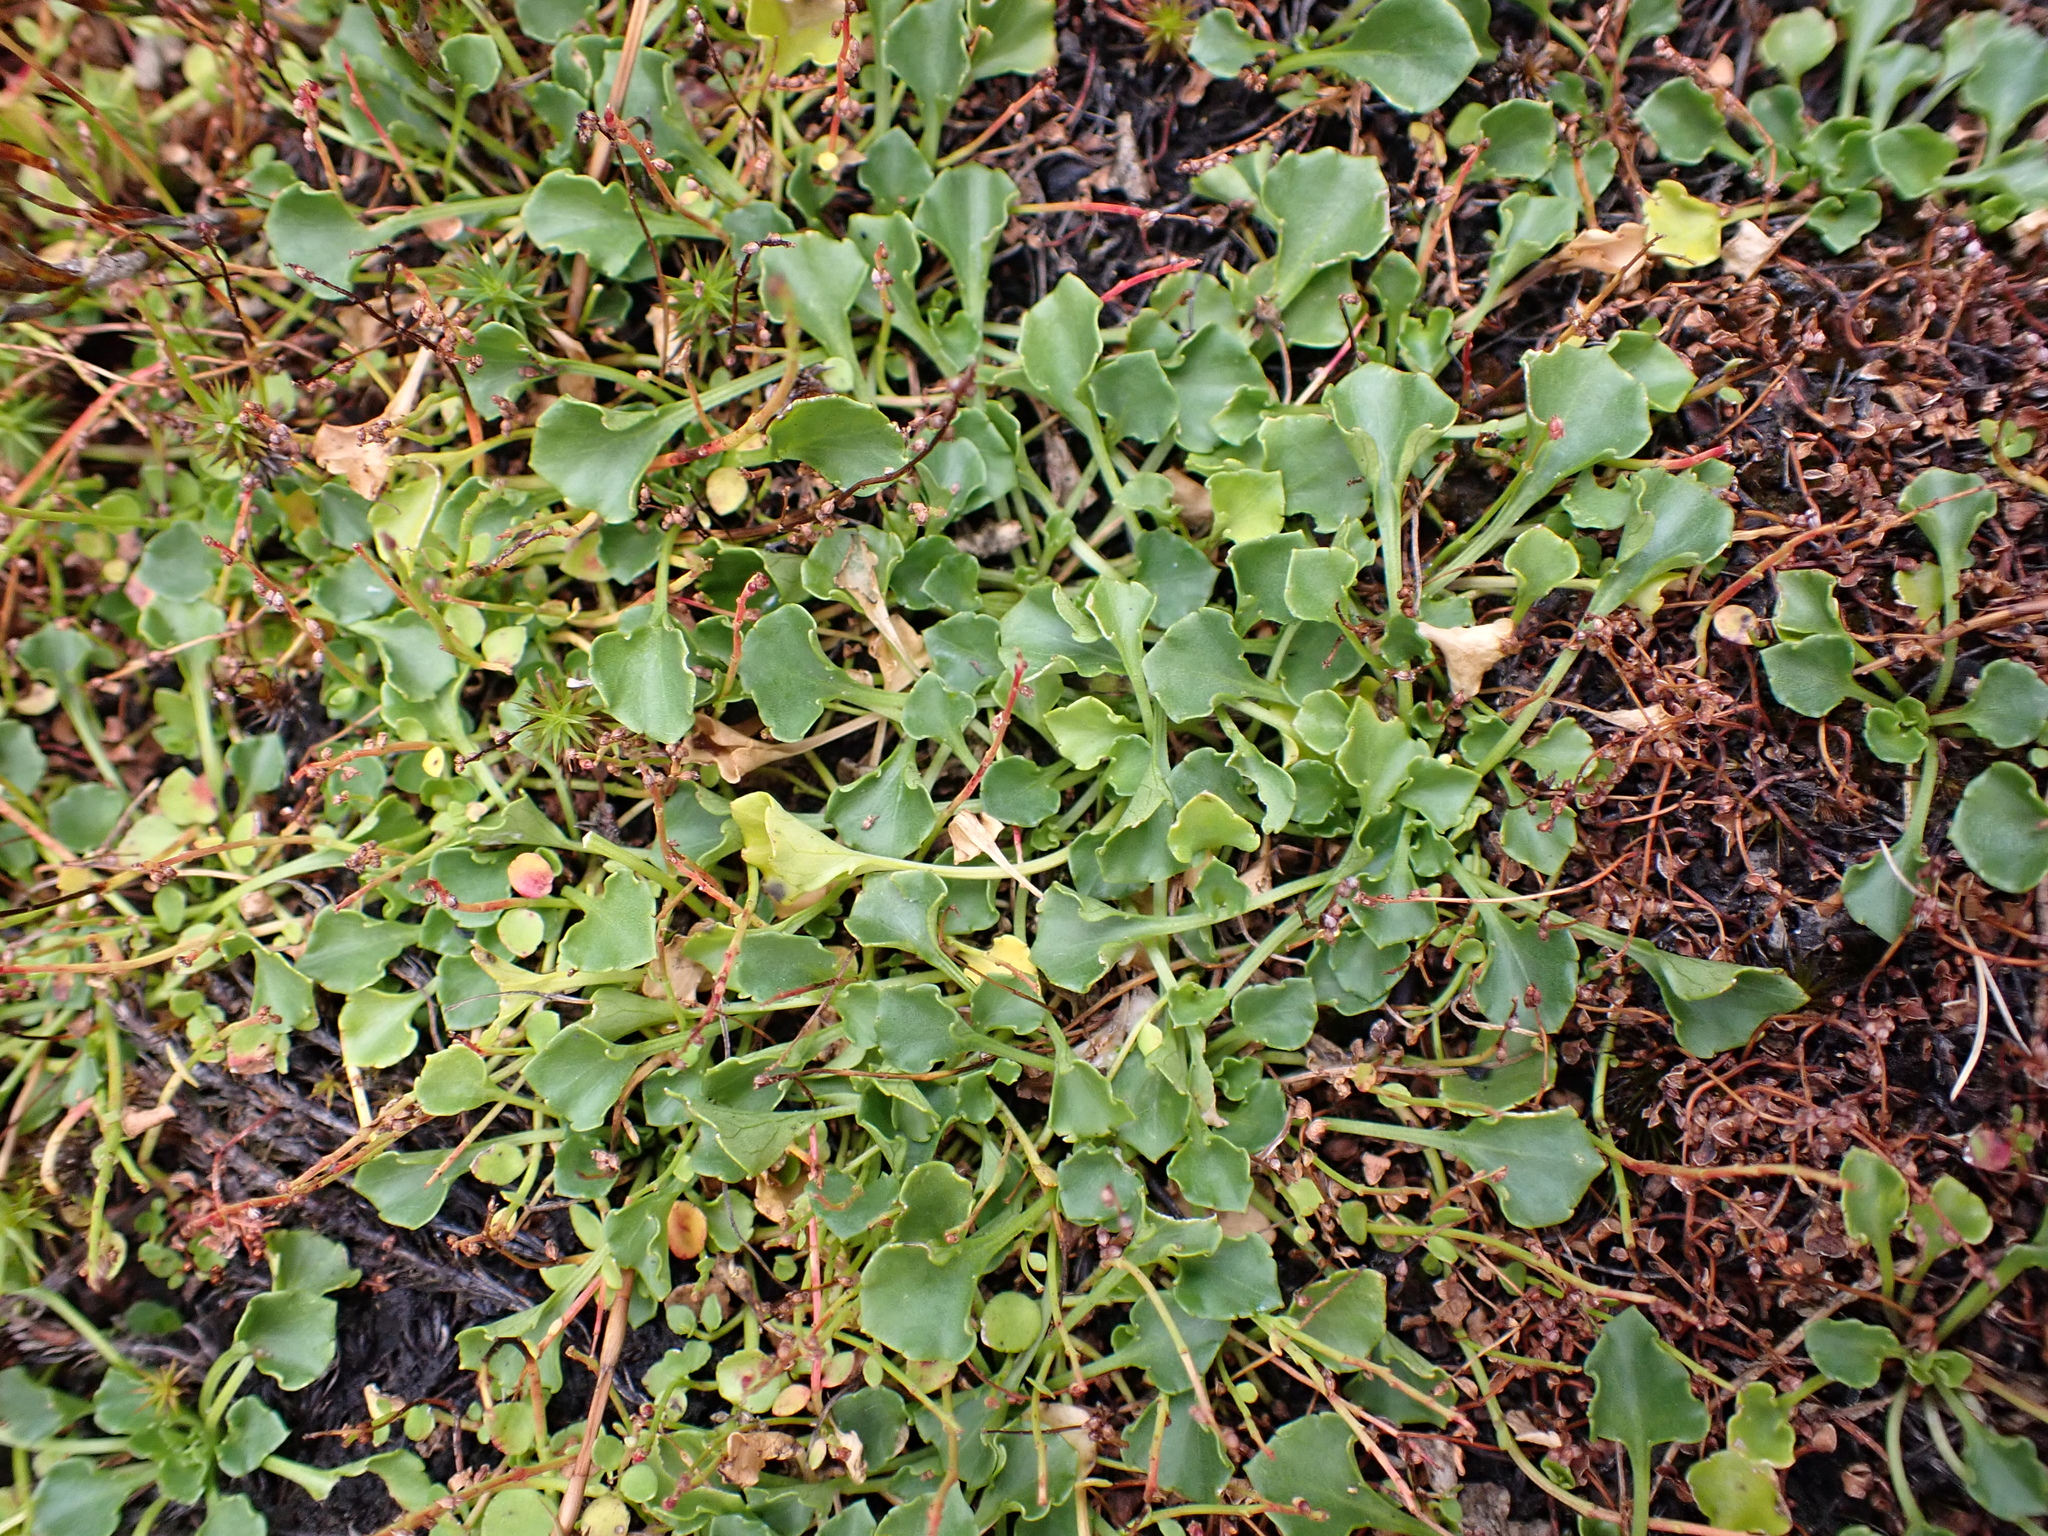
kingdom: Plantae
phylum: Tracheophyta
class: Magnoliopsida
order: Malpighiales
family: Violaceae
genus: Viola
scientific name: Viola fuscoviolacea
